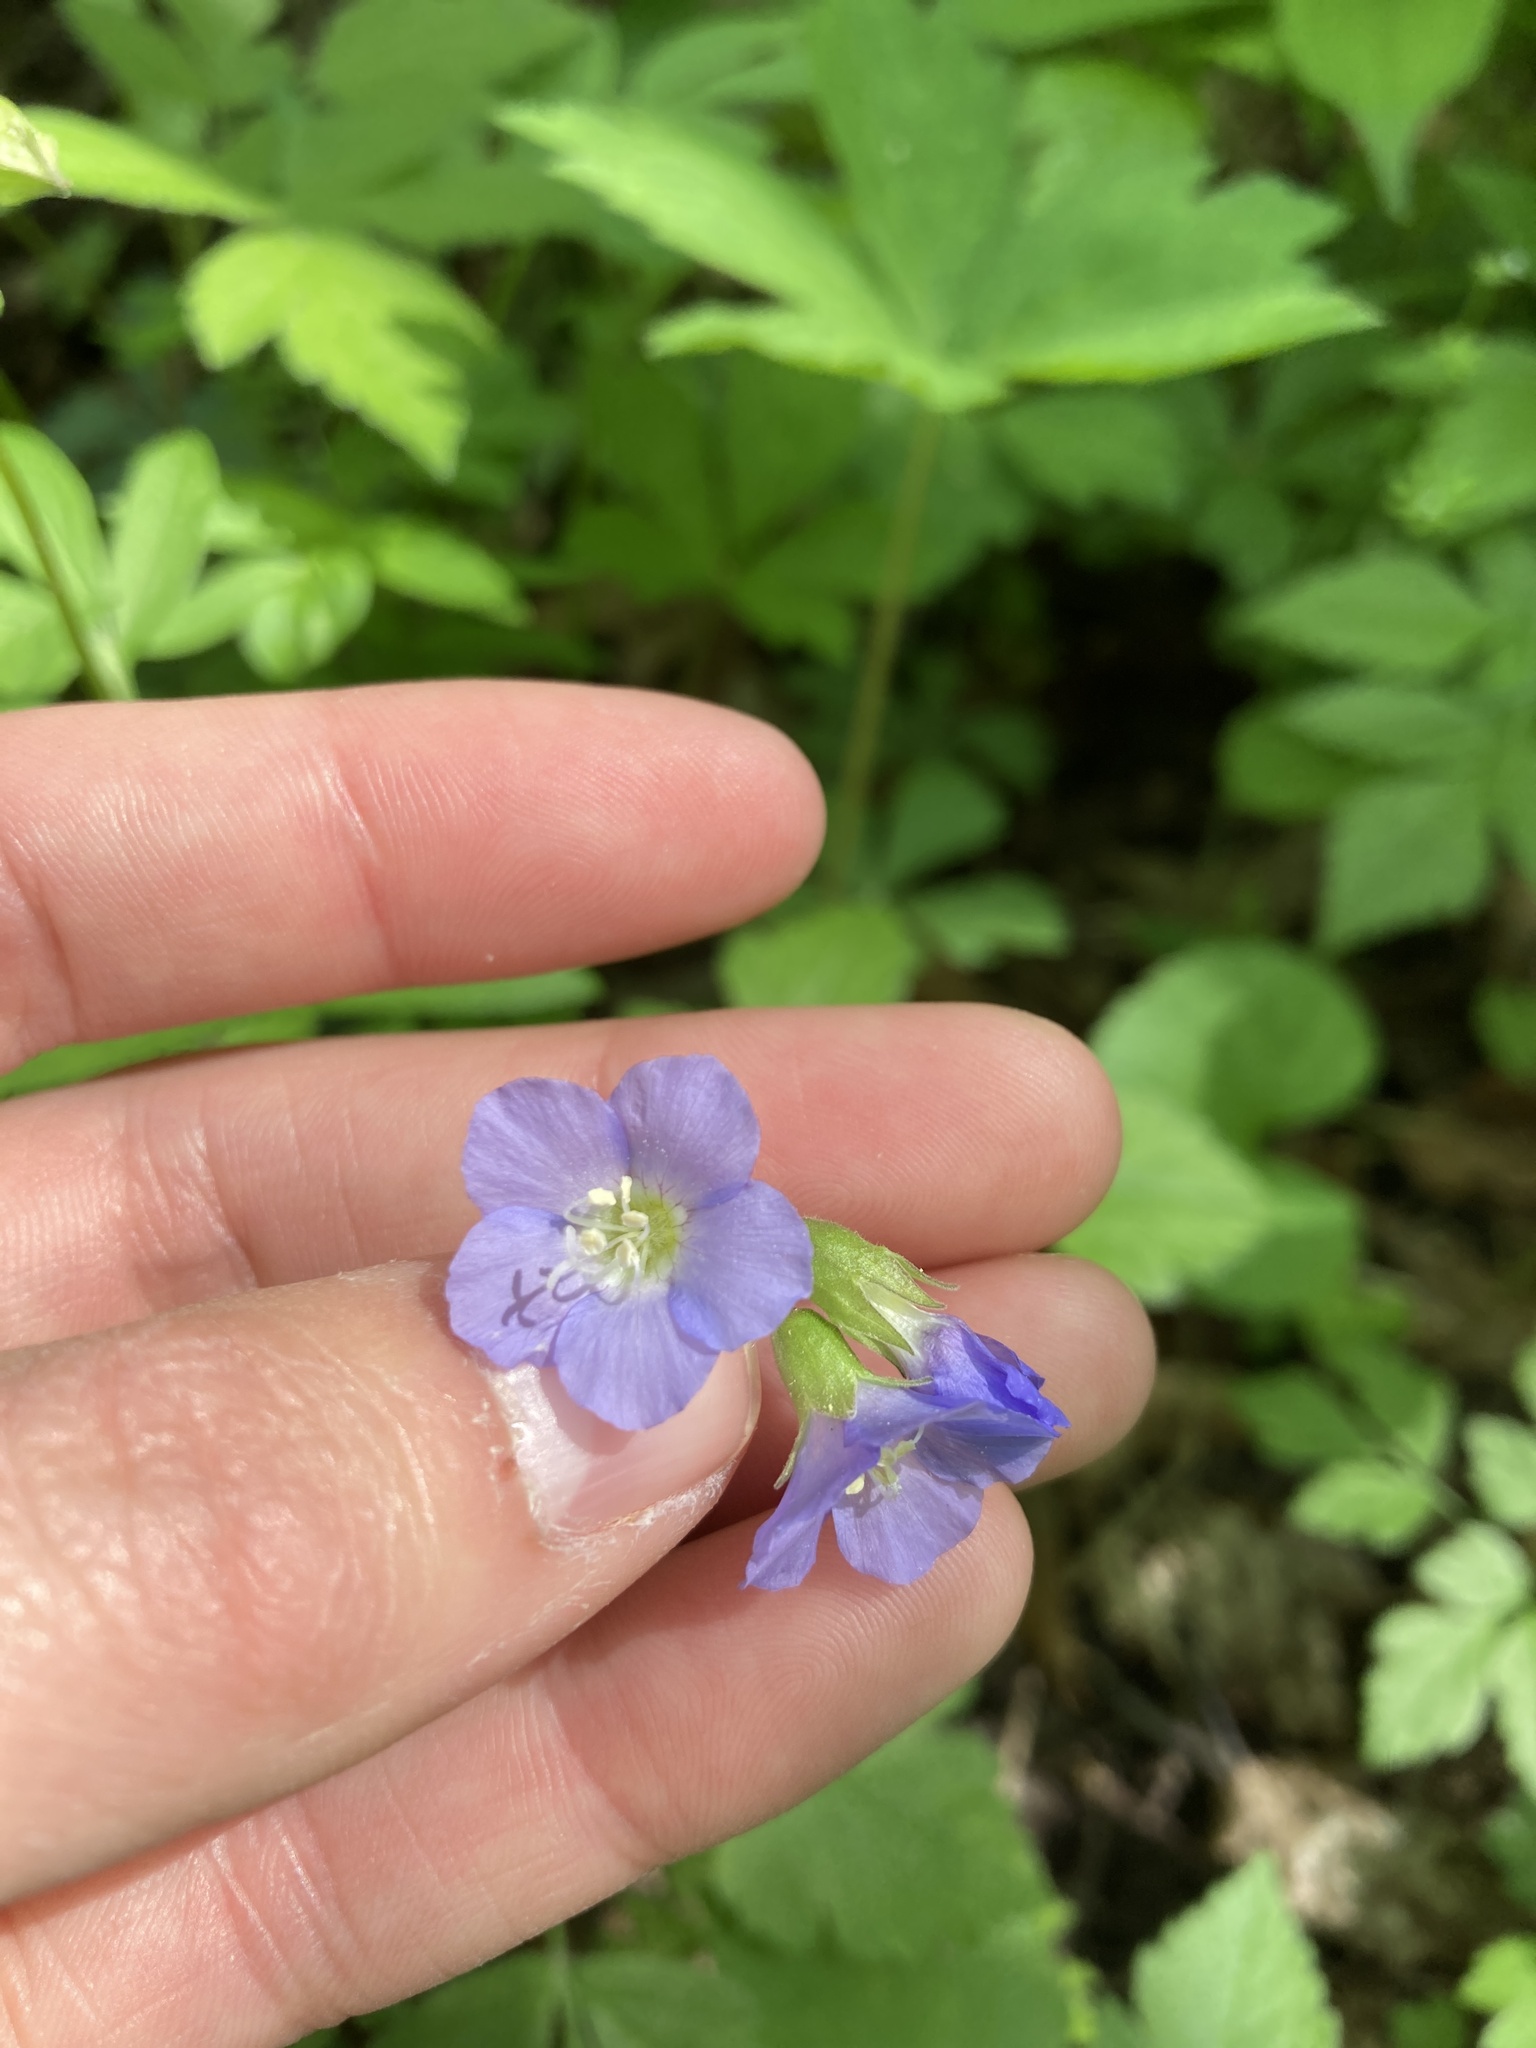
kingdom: Plantae
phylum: Tracheophyta
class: Magnoliopsida
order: Ericales
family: Polemoniaceae
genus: Polemonium
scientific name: Polemonium reptans
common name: Creeping jacob's-ladder
